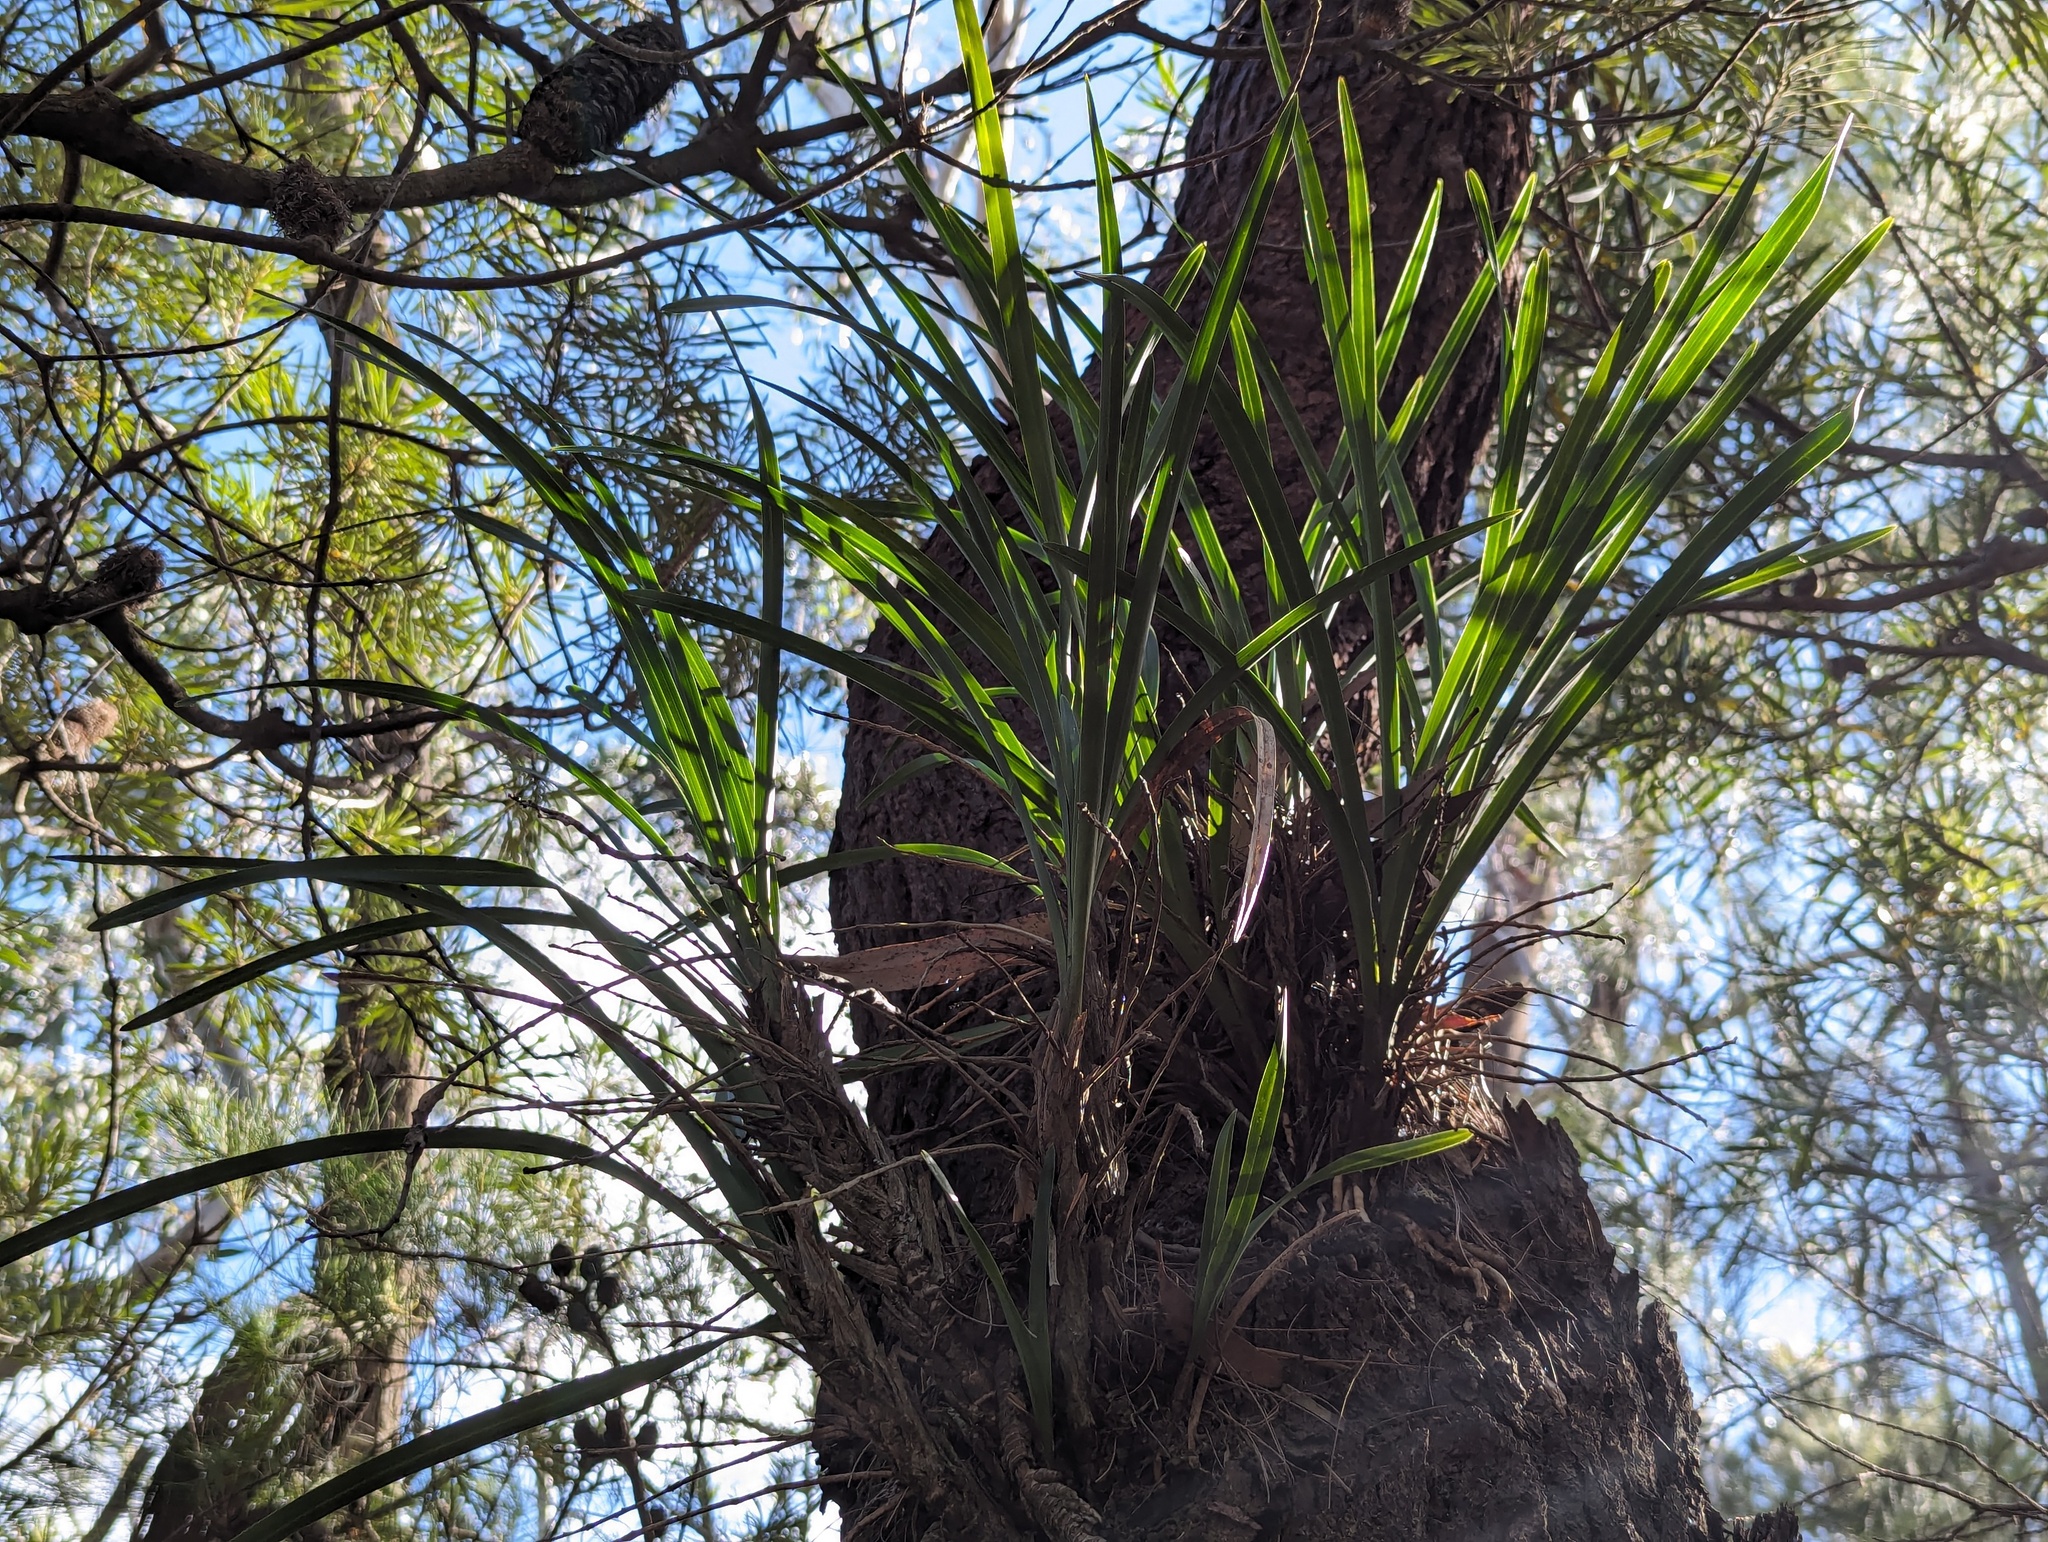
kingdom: Plantae
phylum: Tracheophyta
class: Liliopsida
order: Asparagales
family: Orchidaceae
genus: Cymbidium
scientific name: Cymbidium suave
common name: Snake orchid
